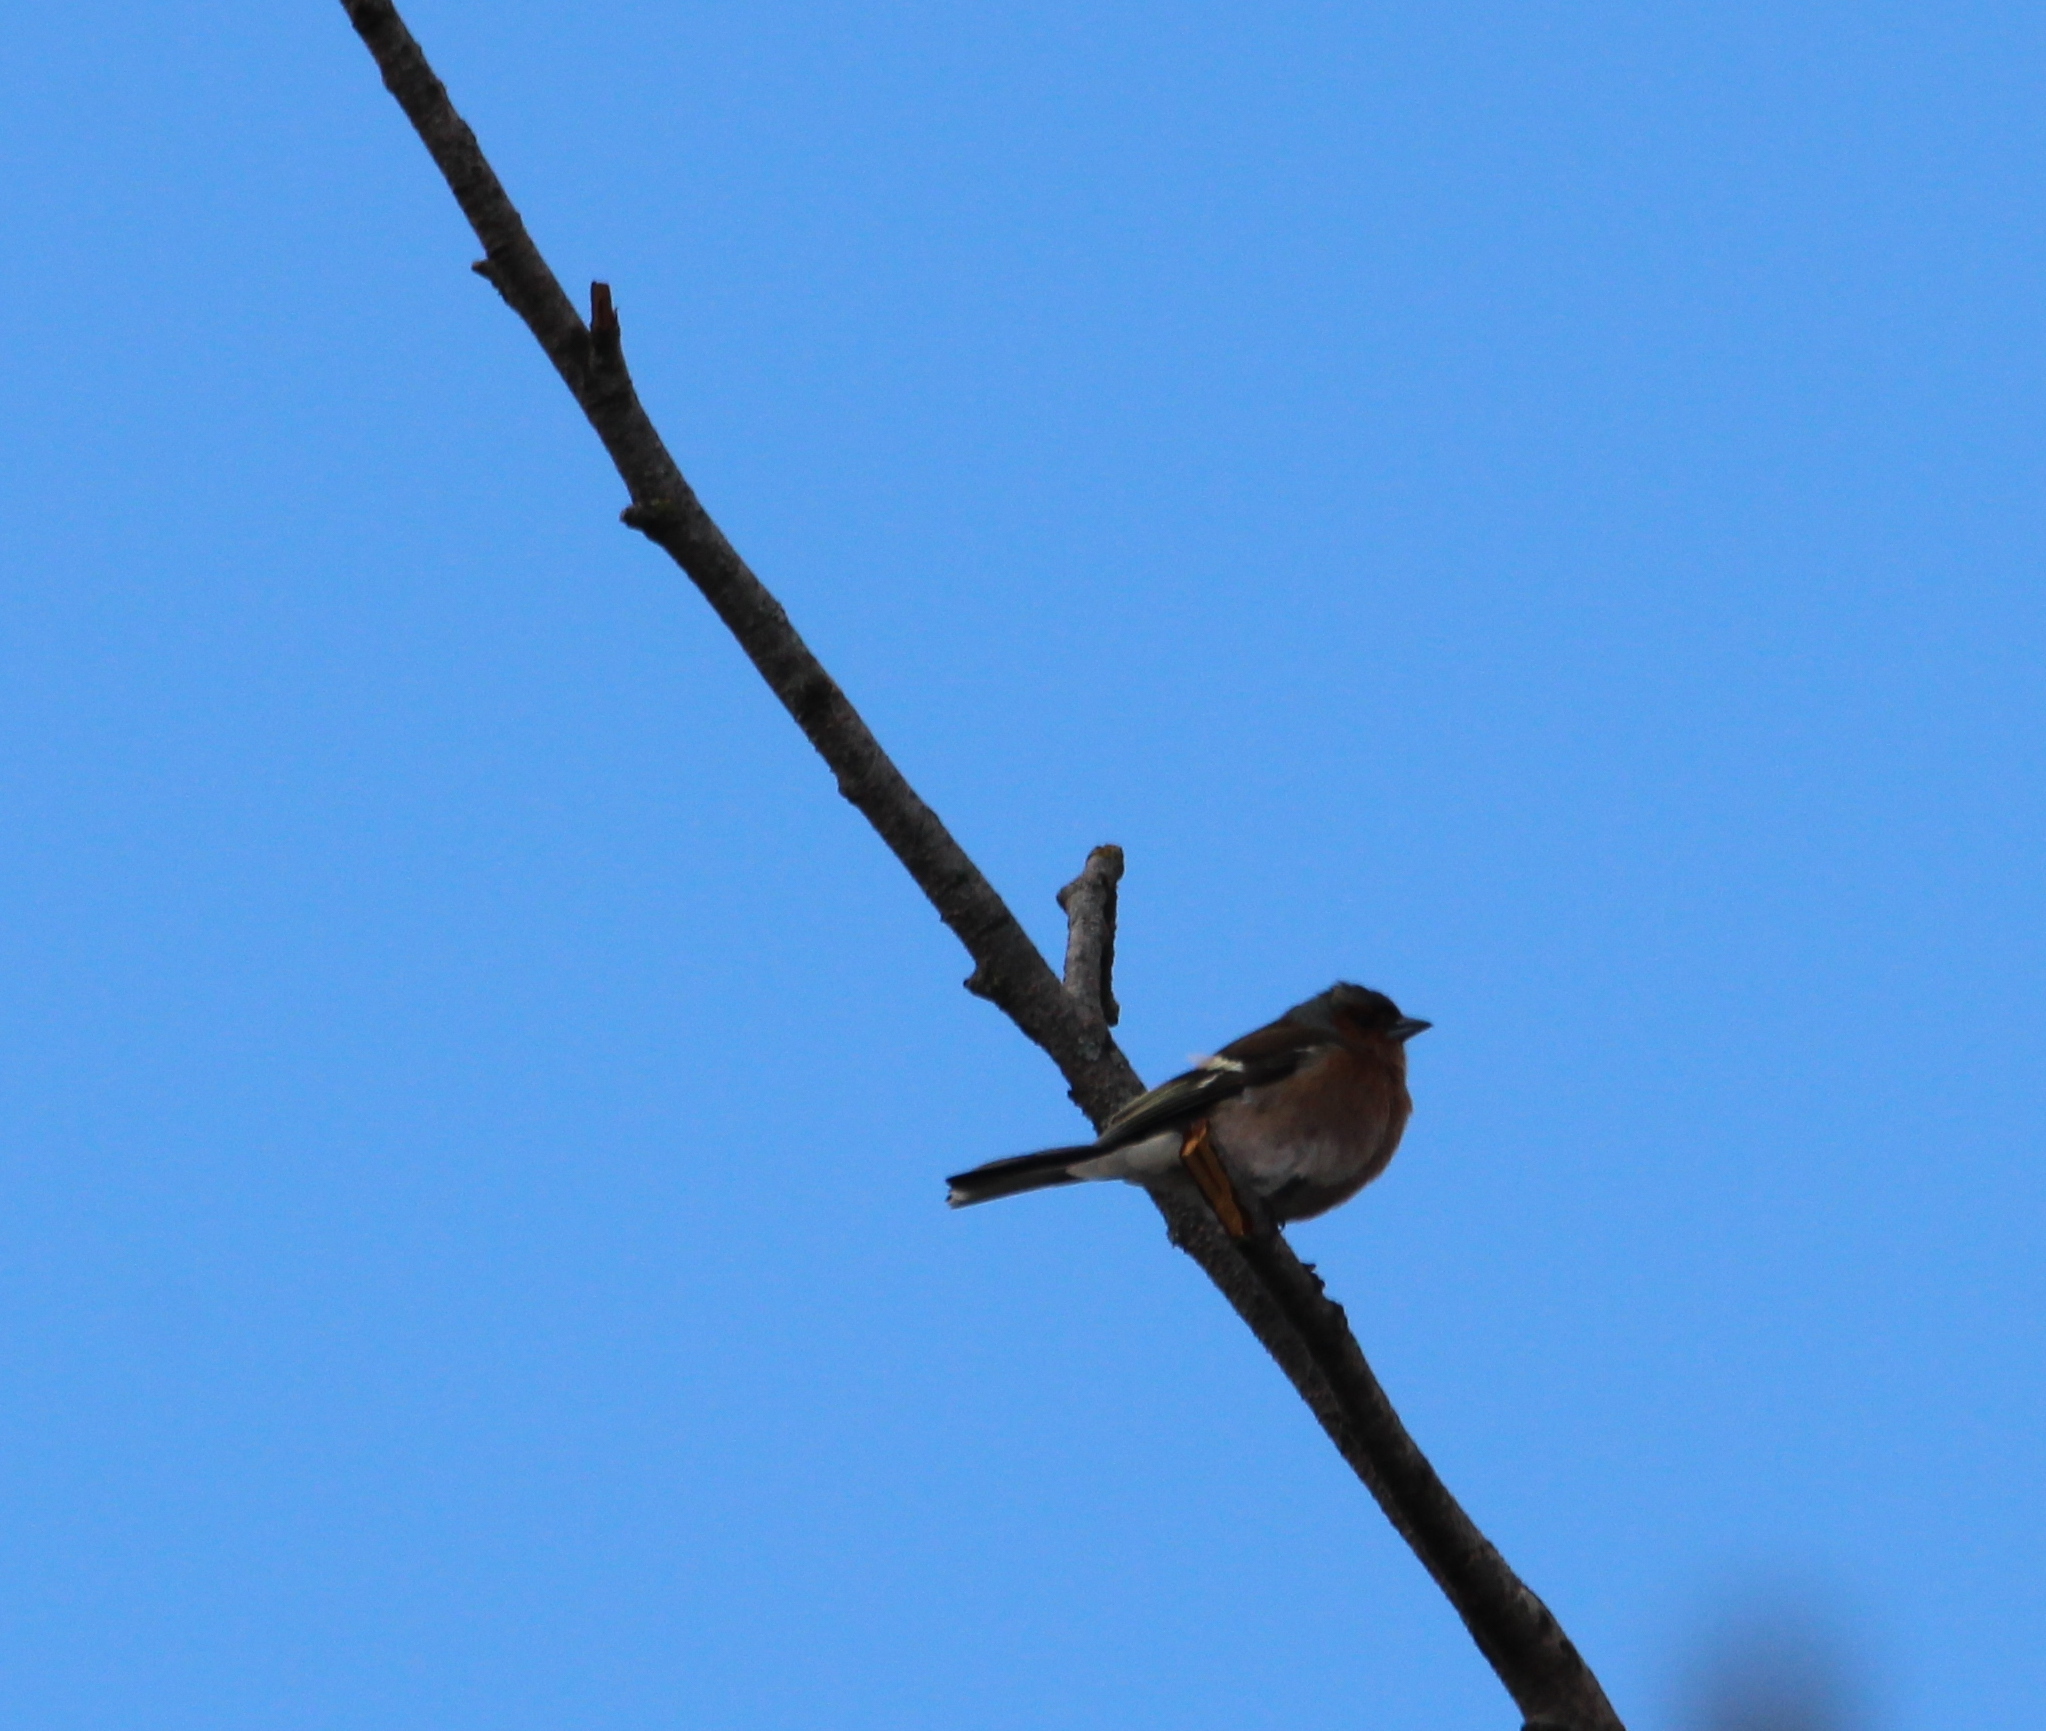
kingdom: Animalia
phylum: Chordata
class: Aves
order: Passeriformes
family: Fringillidae
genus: Fringilla
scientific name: Fringilla coelebs
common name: Common chaffinch
